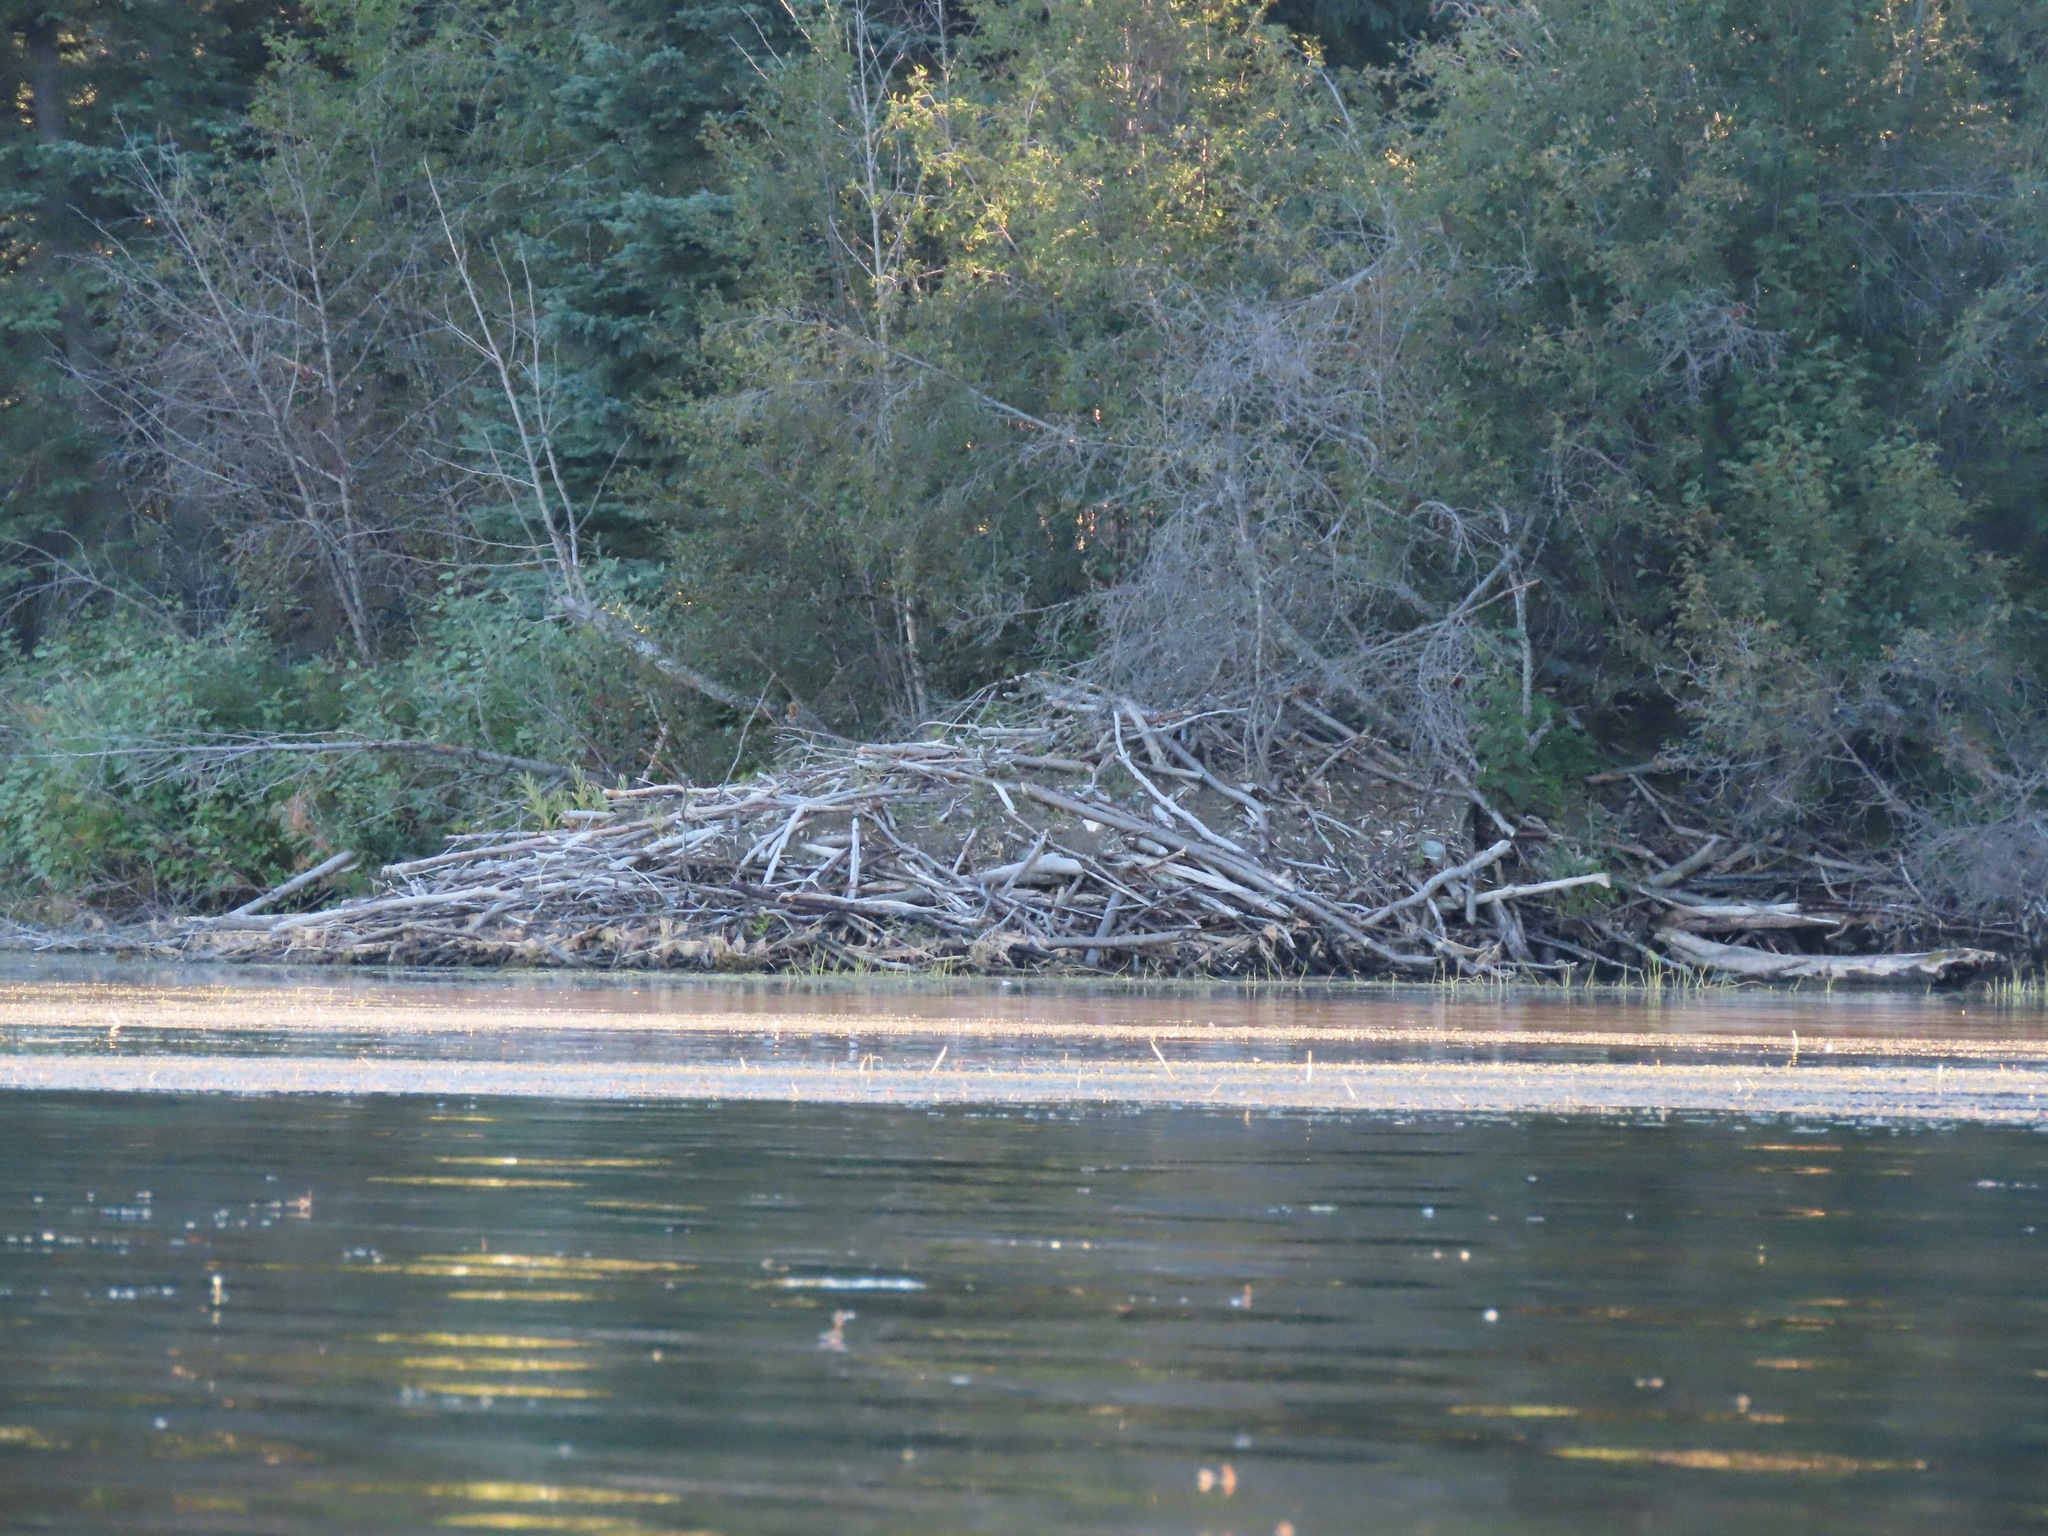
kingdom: Animalia
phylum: Chordata
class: Mammalia
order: Rodentia
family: Castoridae
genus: Castor
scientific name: Castor canadensis
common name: American beaver
